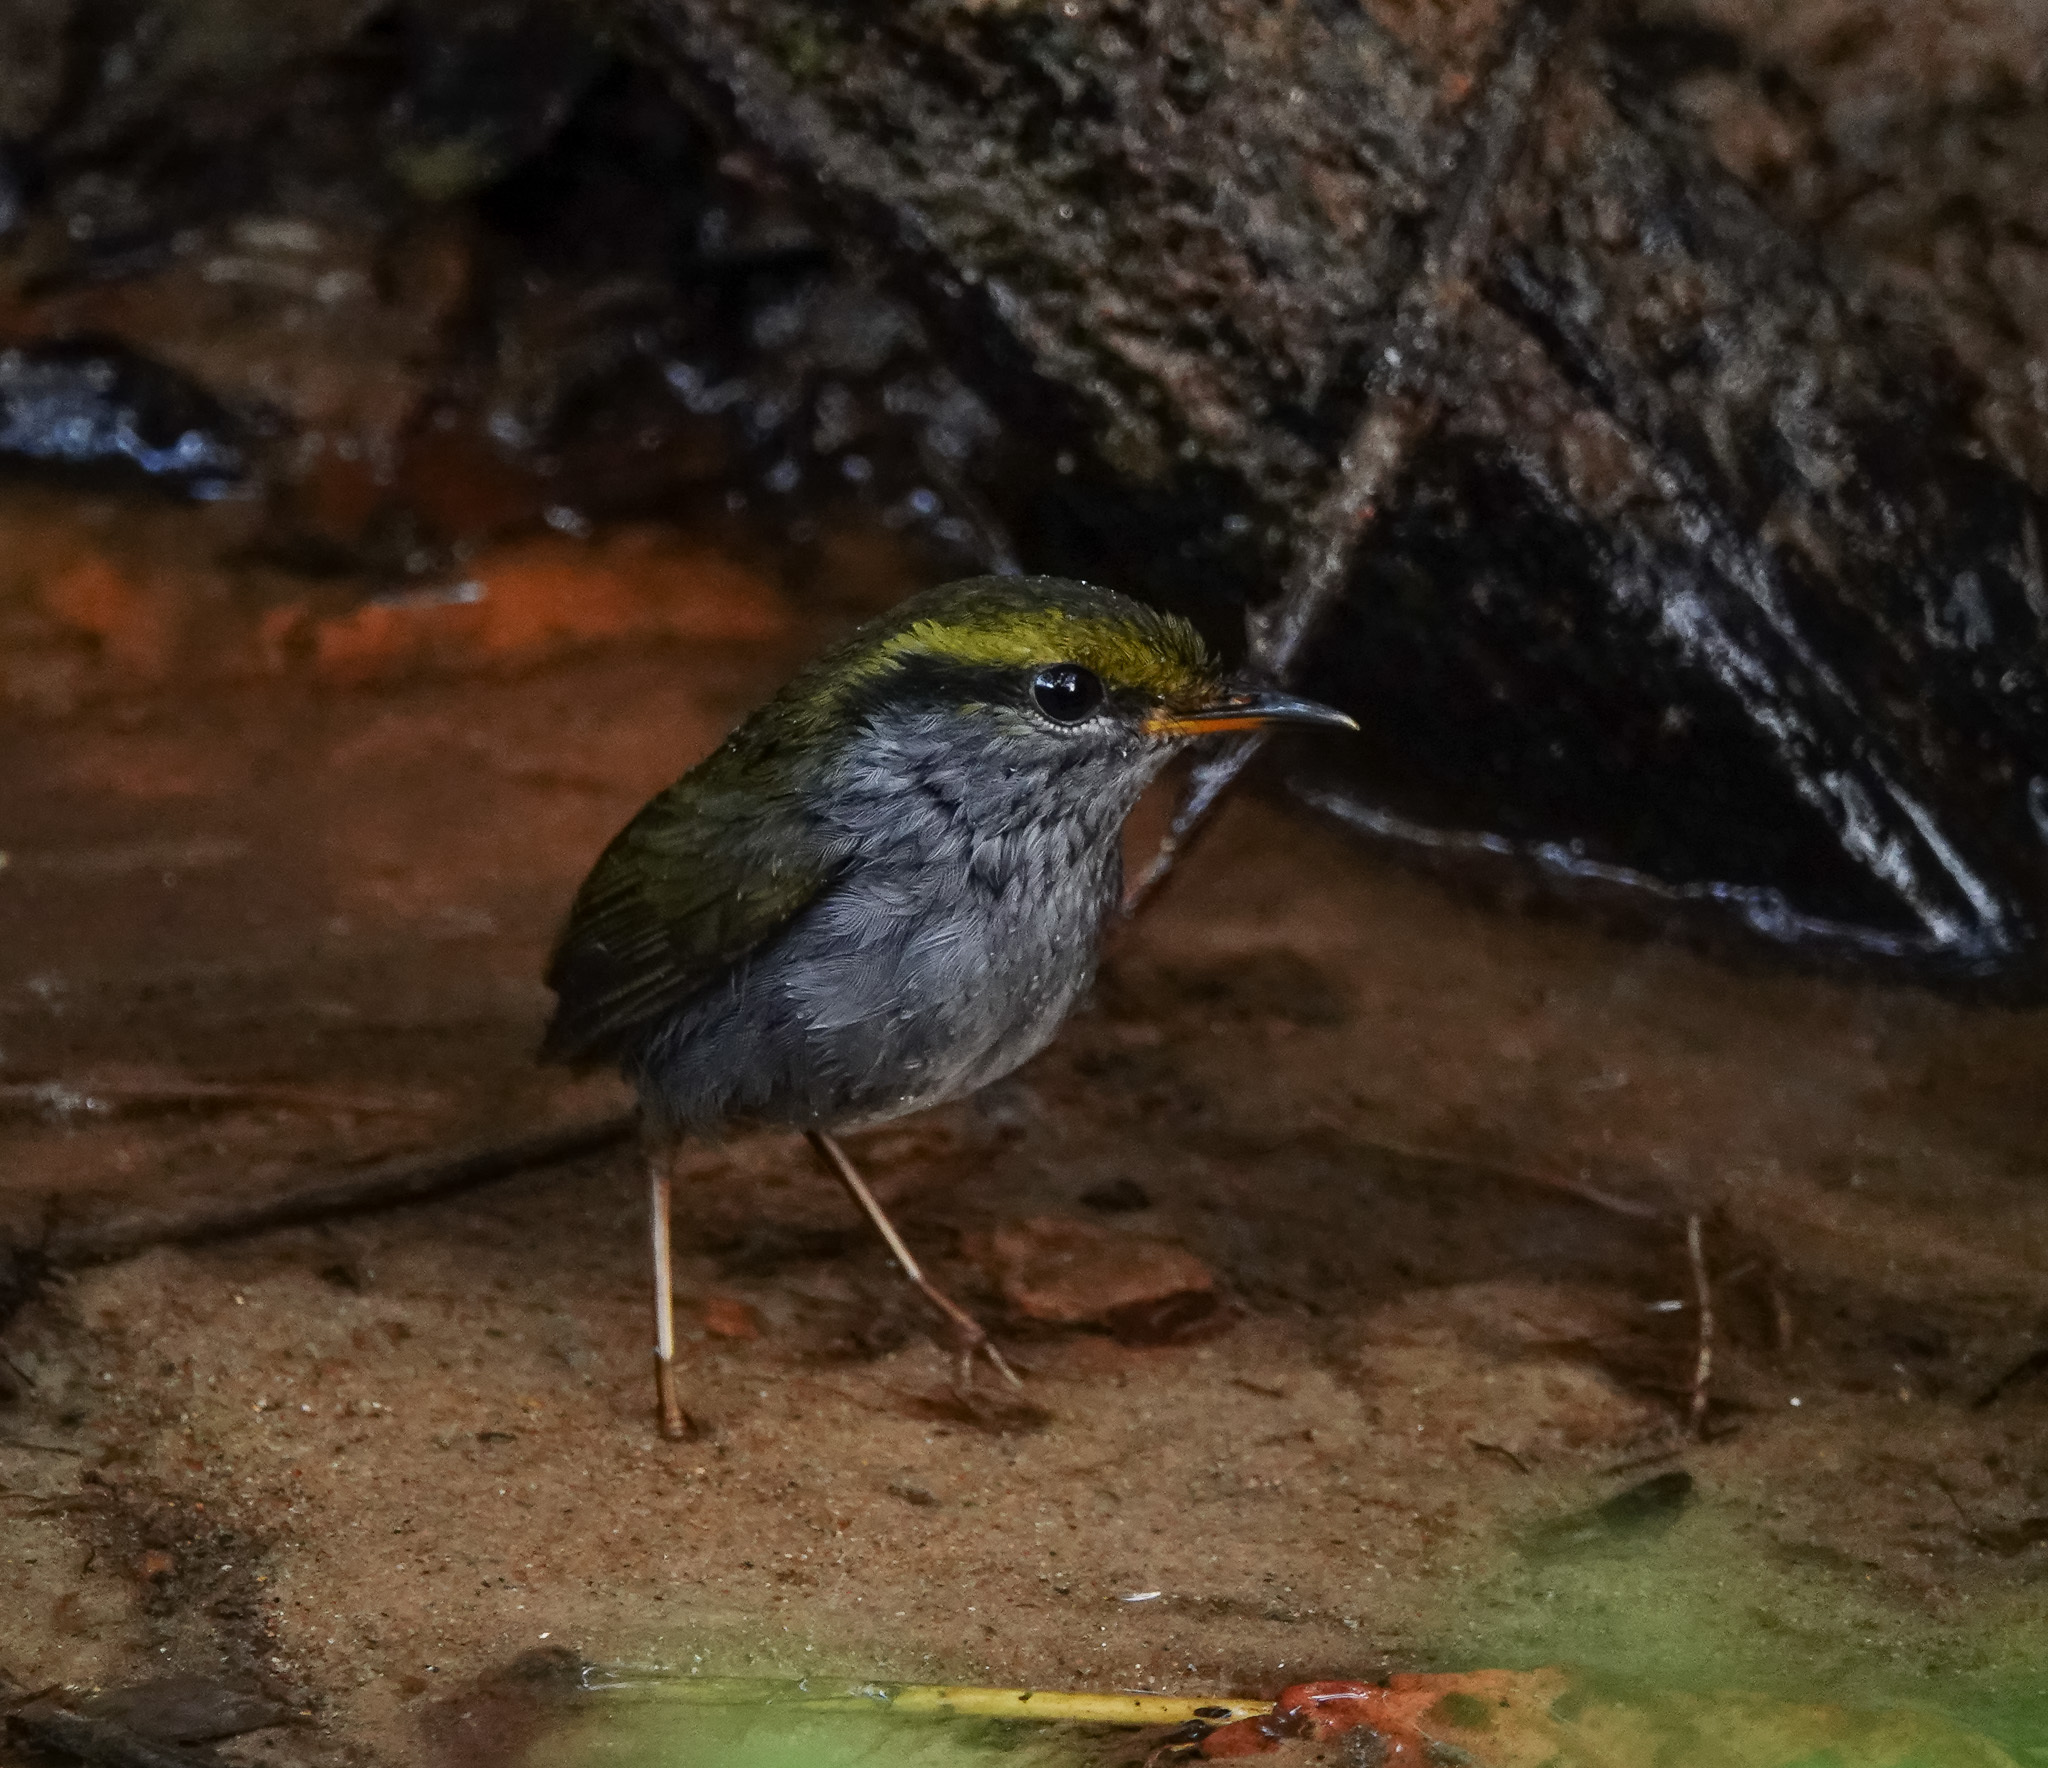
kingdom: Animalia
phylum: Chordata
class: Aves
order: Passeriformes
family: Cettiidae
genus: Tesia
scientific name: Tesia cyaniventer
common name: Grey-bellied tesia
